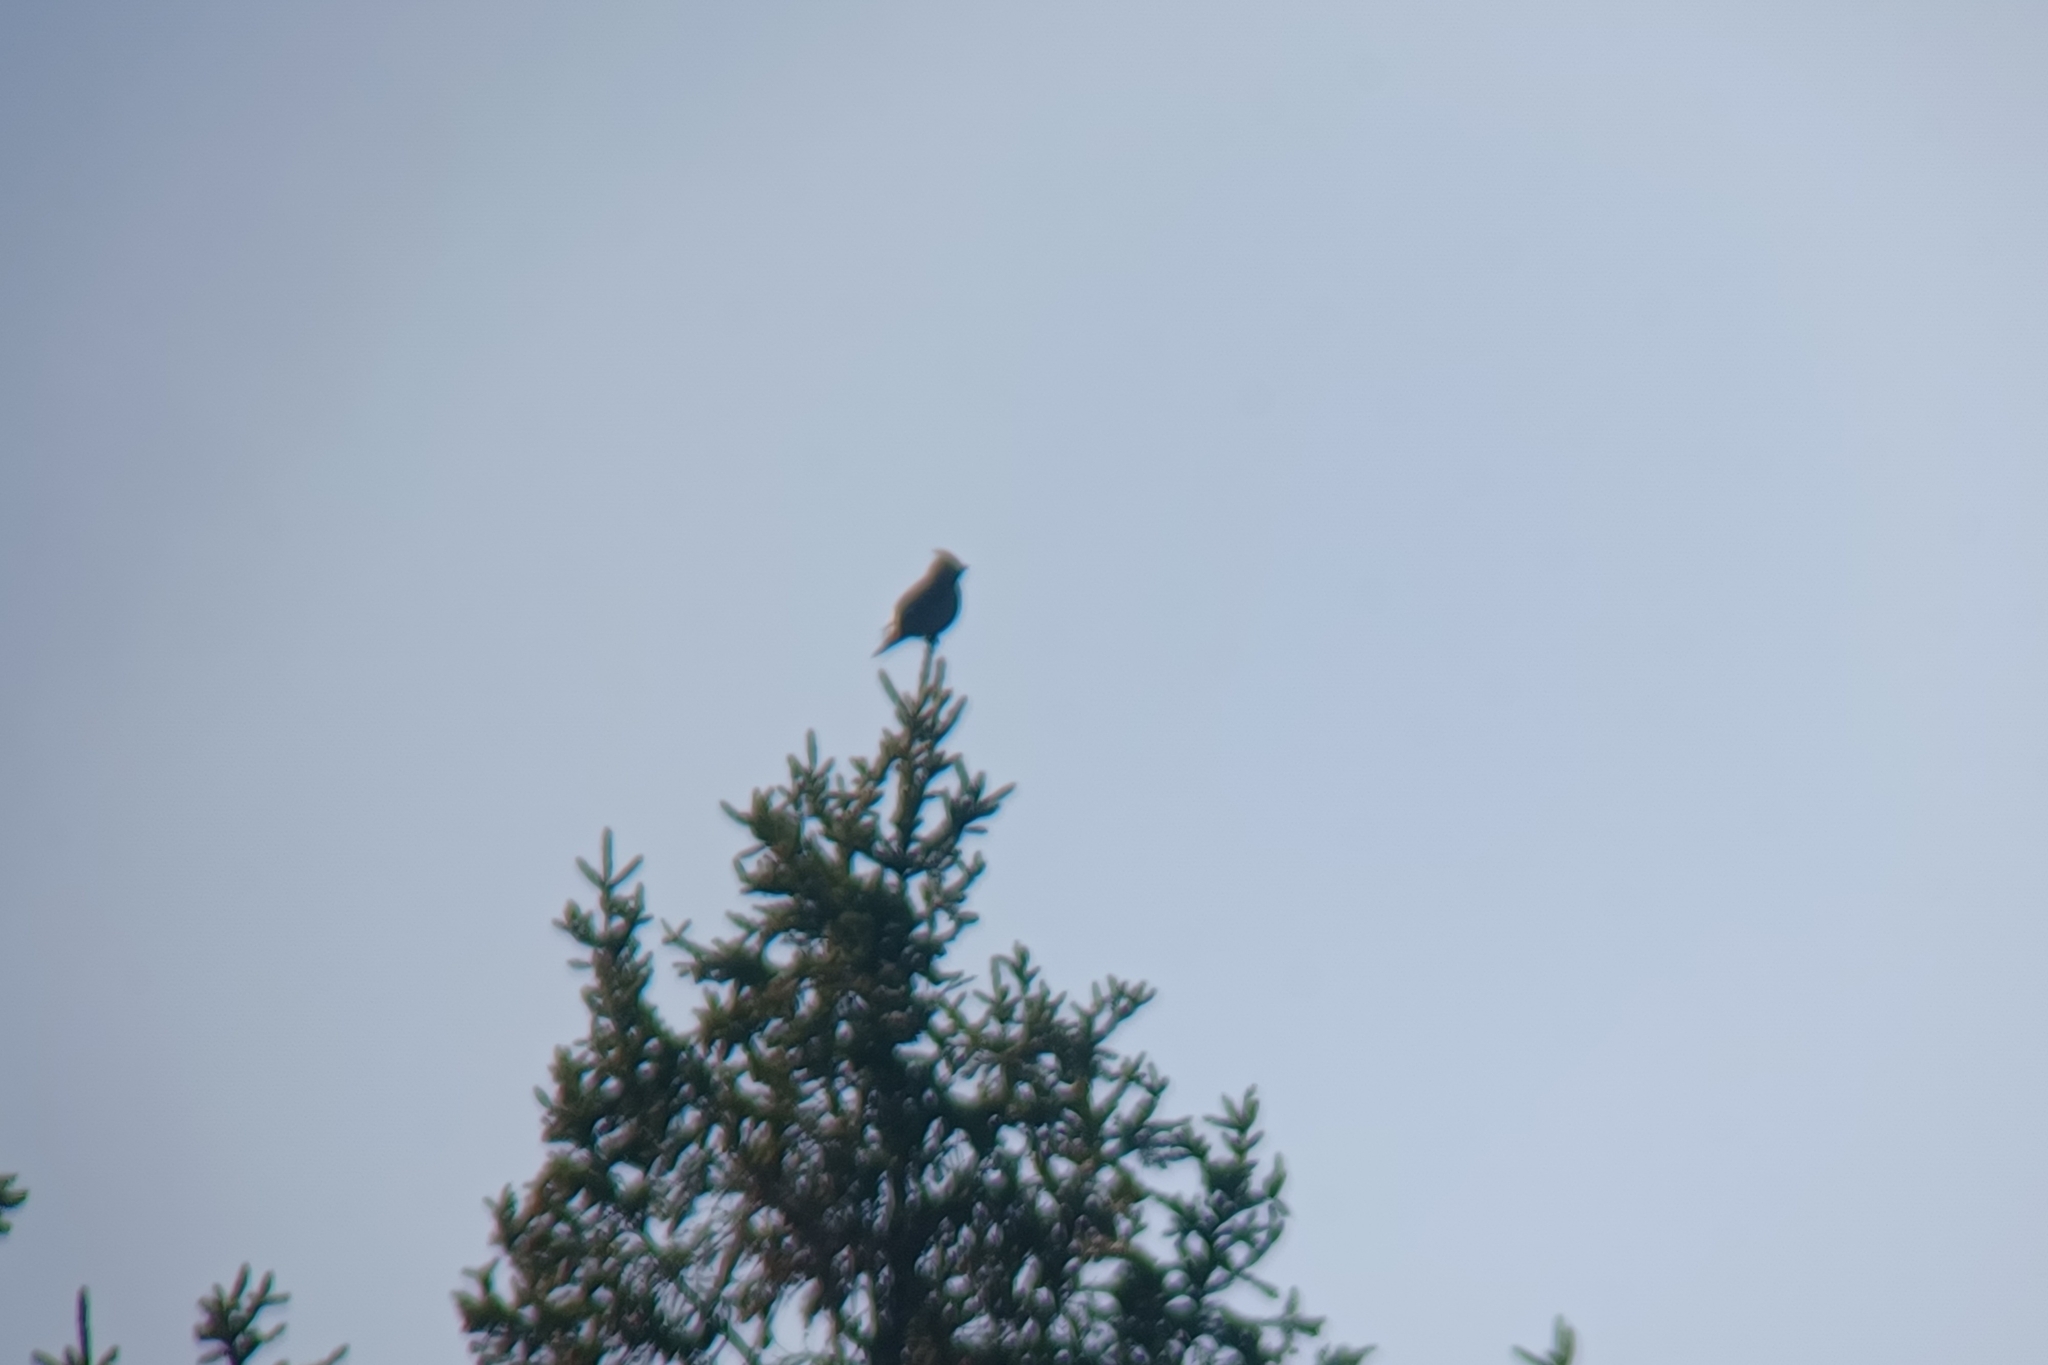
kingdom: Animalia
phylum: Chordata
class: Aves
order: Passeriformes
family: Bombycillidae
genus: Bombycilla
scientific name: Bombycilla garrulus
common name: Bohemian waxwing
